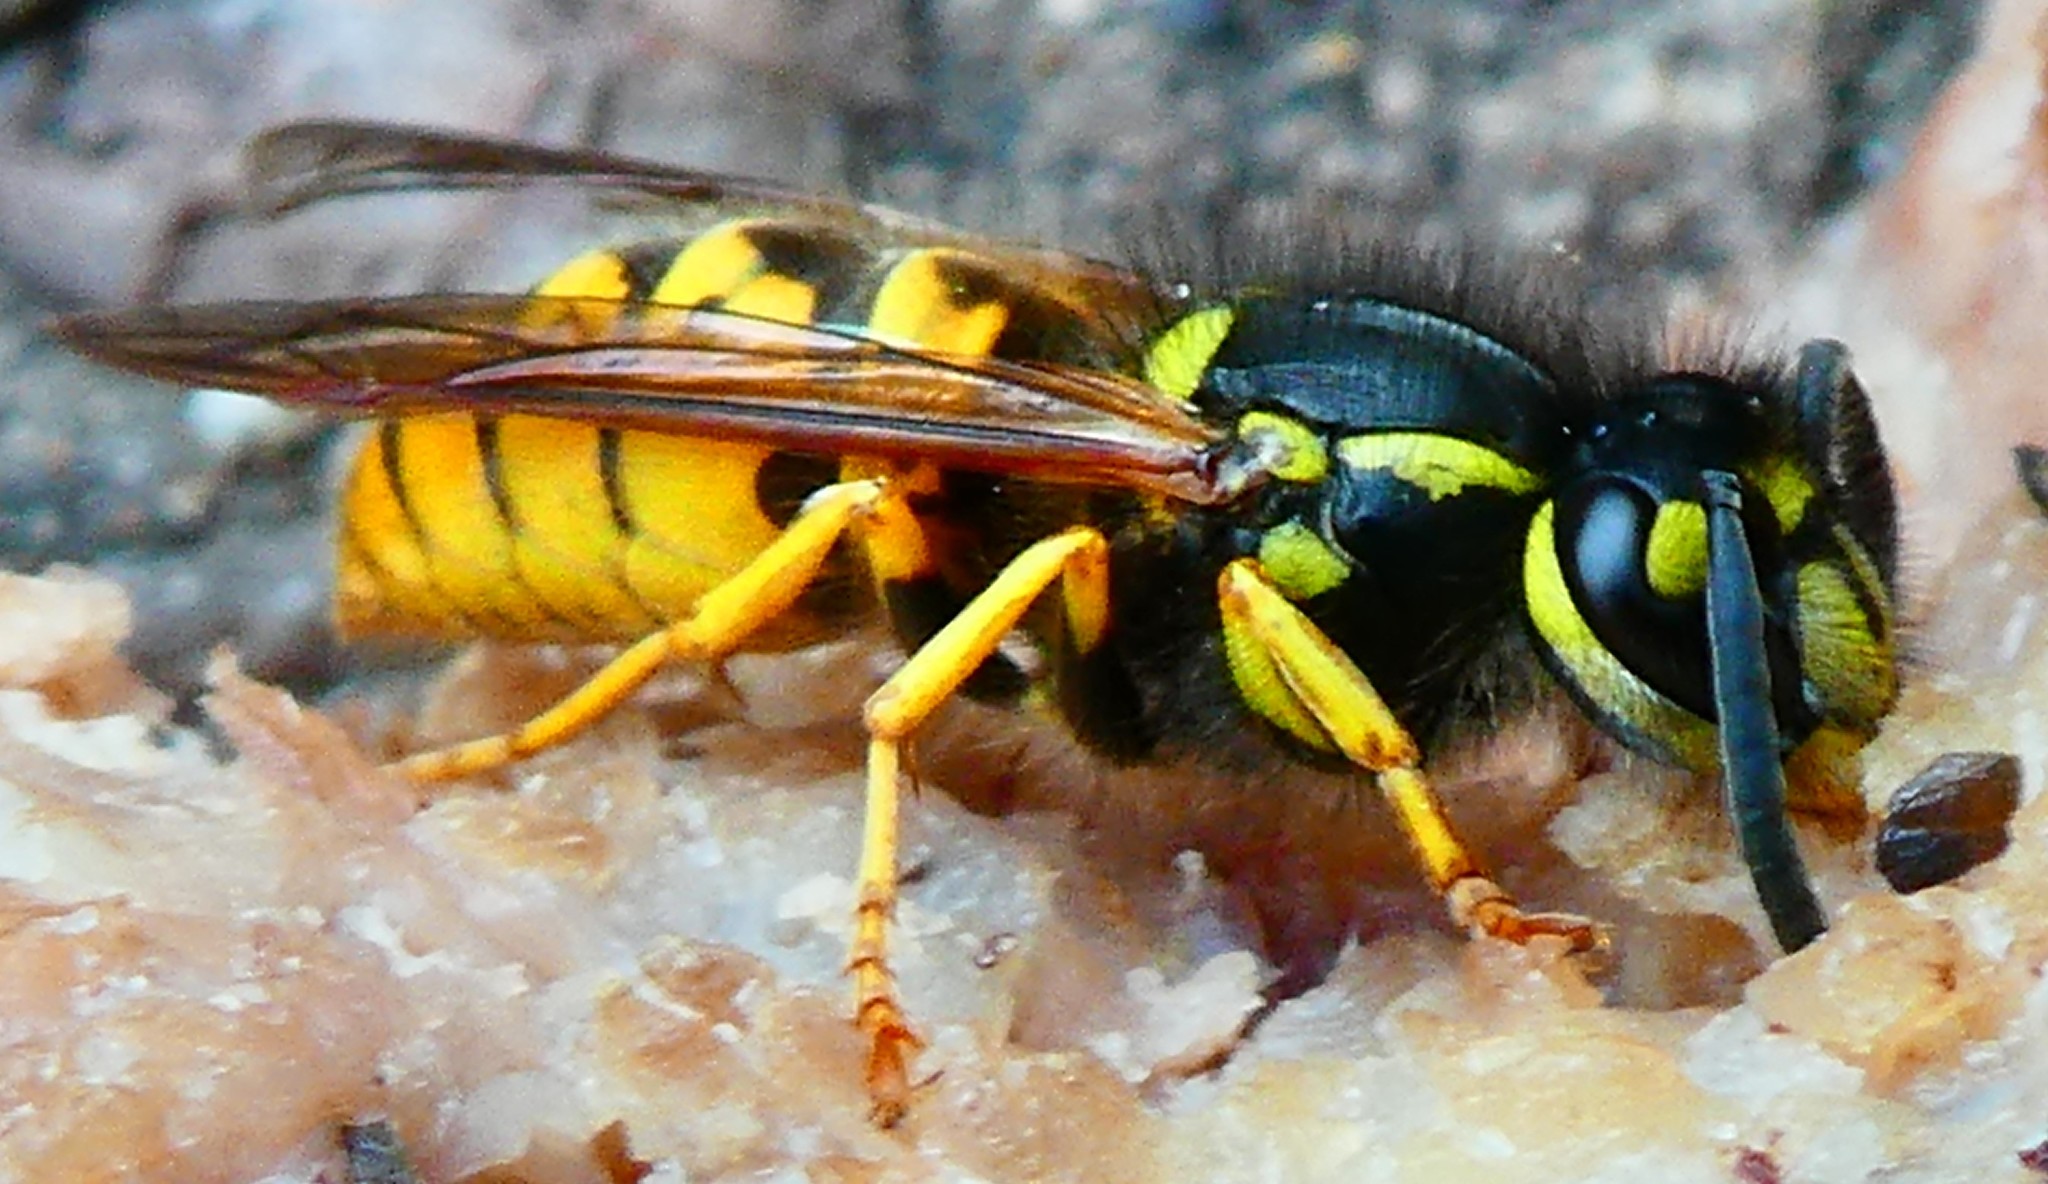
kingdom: Animalia
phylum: Arthropoda
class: Insecta
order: Hymenoptera
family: Vespidae
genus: Vespula
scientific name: Vespula germanica
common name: German wasp
